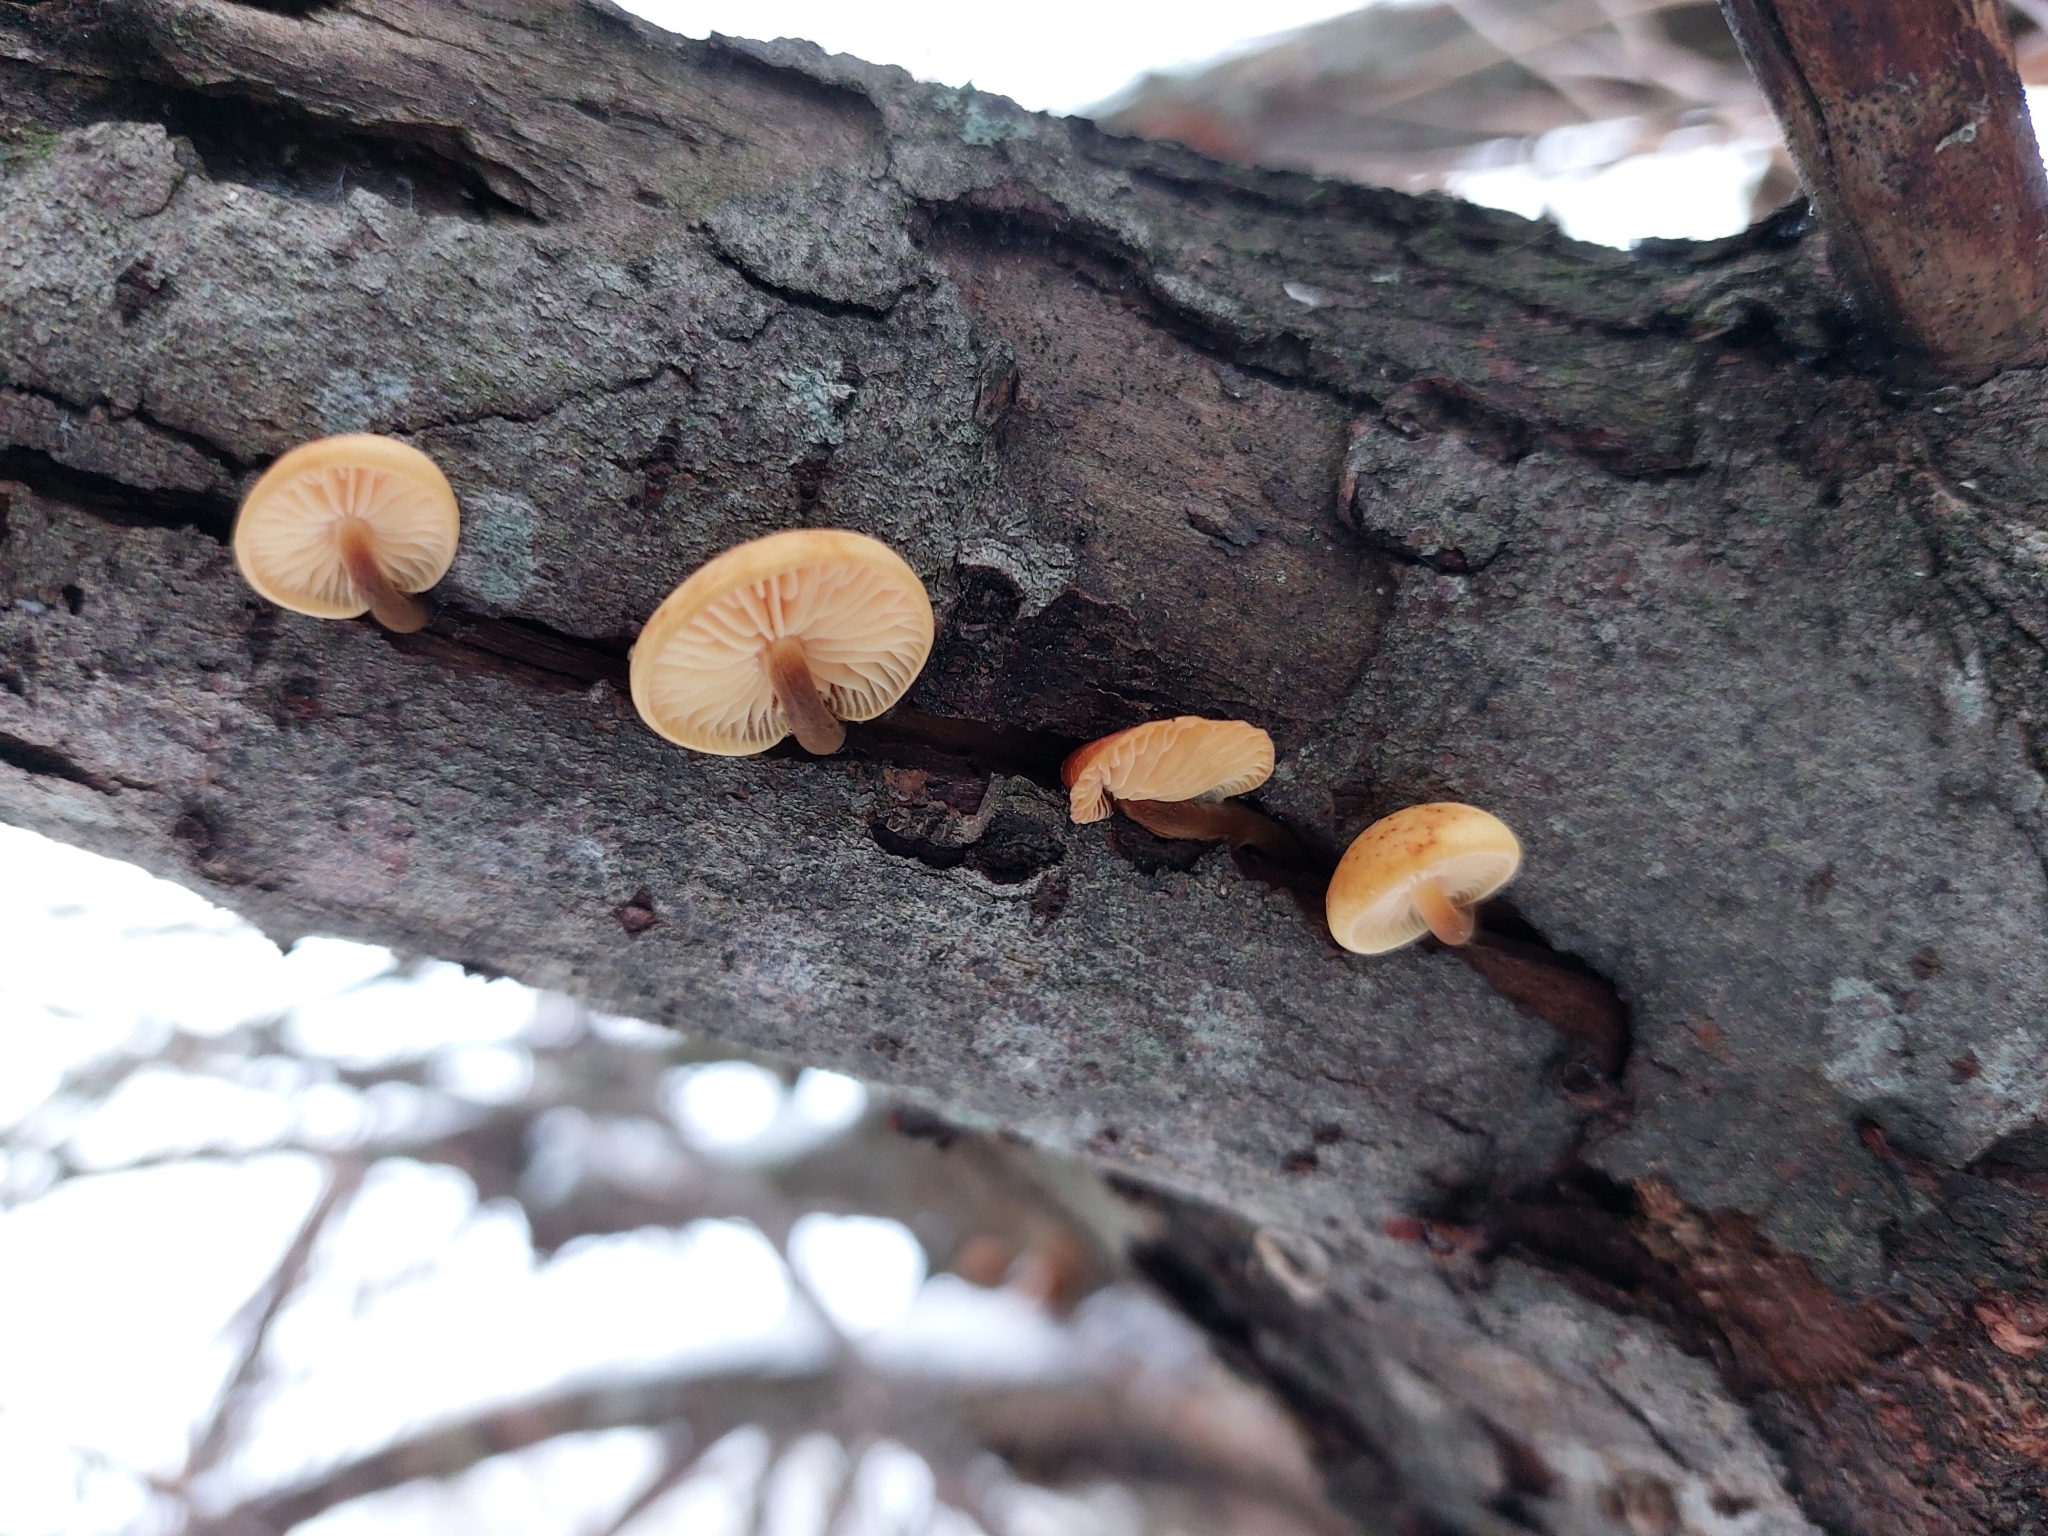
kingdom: Fungi
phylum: Basidiomycota
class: Agaricomycetes
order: Agaricales
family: Physalacriaceae
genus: Flammulina
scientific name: Flammulina
